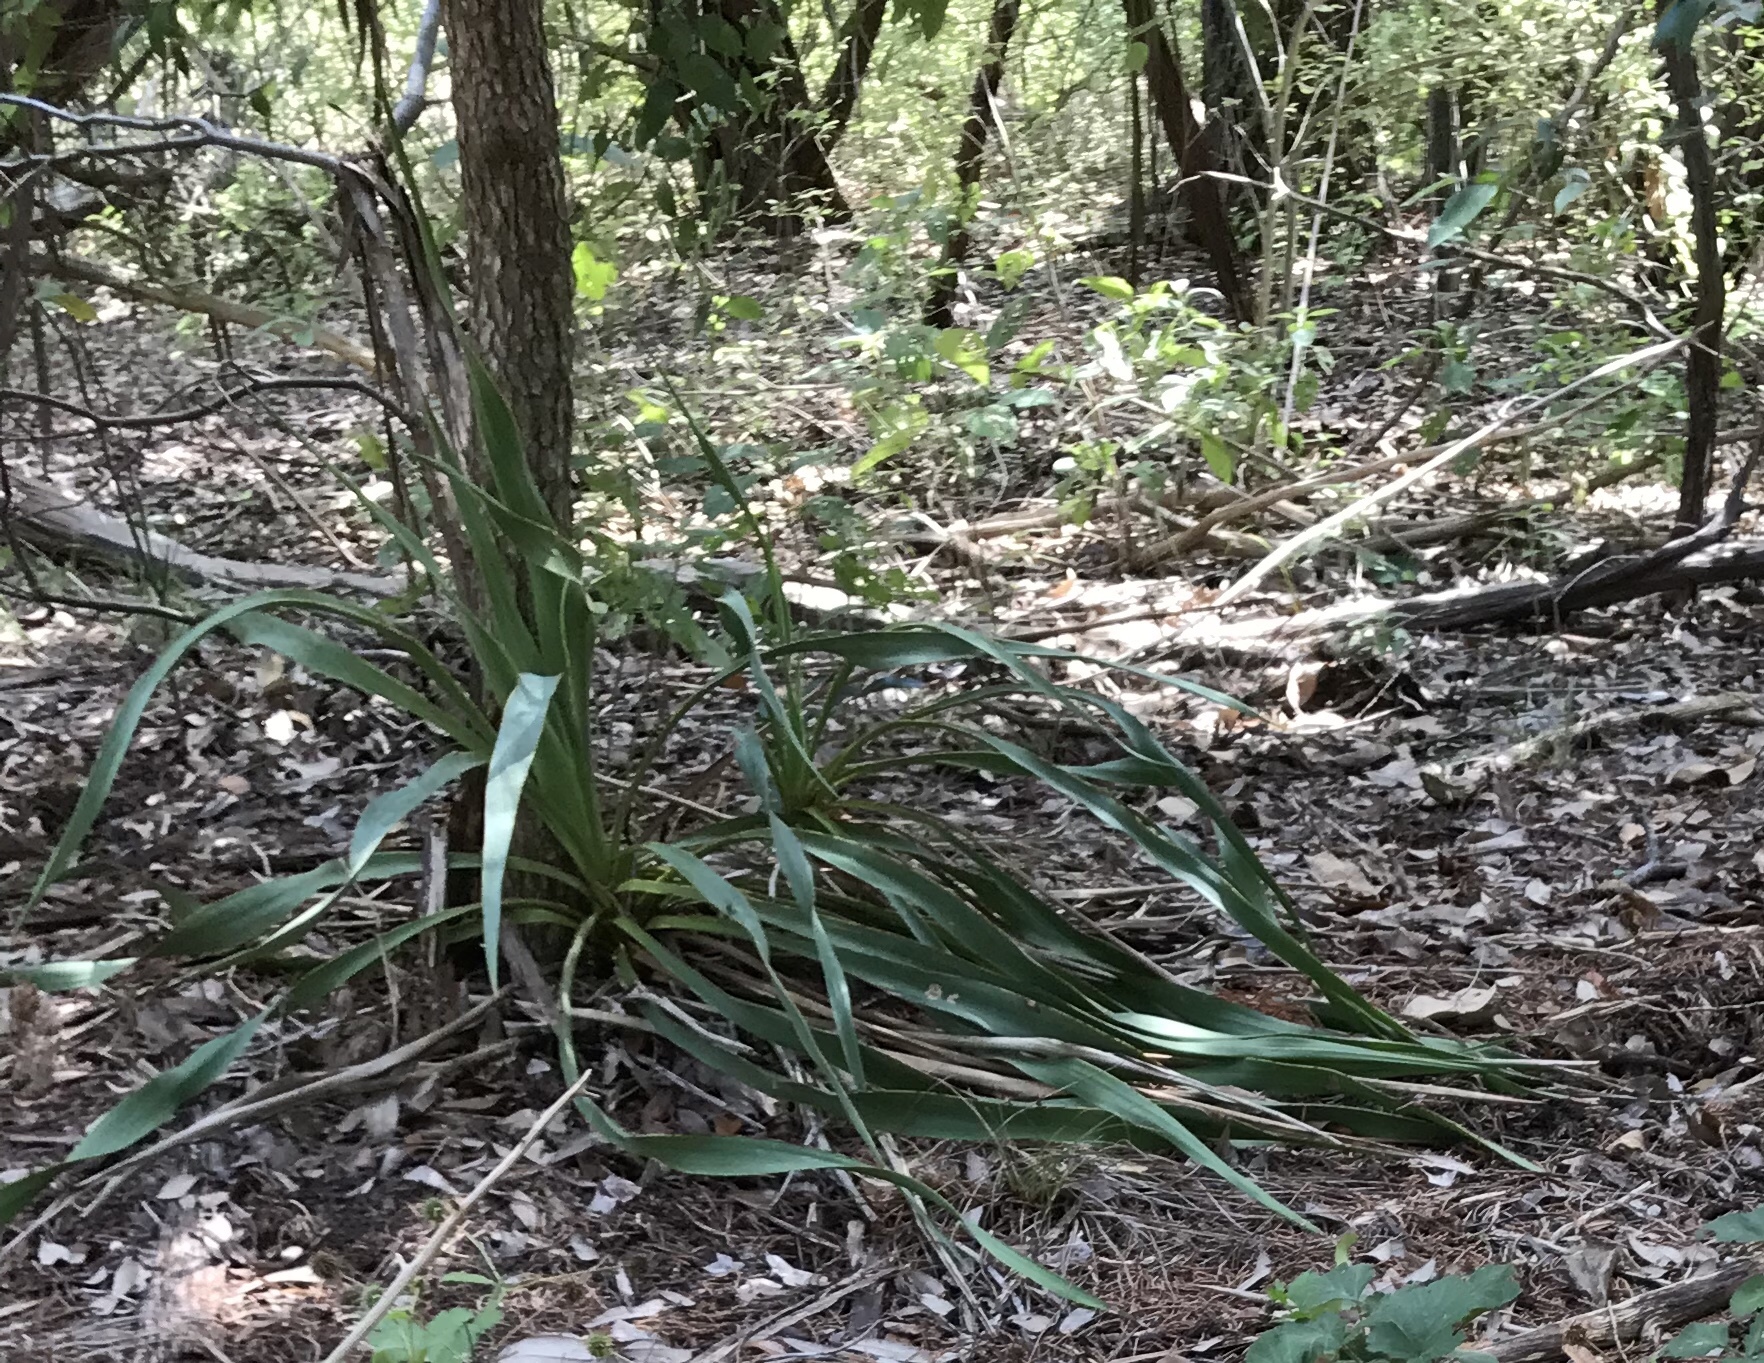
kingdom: Plantae
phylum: Tracheophyta
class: Liliopsida
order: Asparagales
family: Asparagaceae
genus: Yucca
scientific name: Yucca rupicola
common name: Twisted-leaf spanish-dagger
